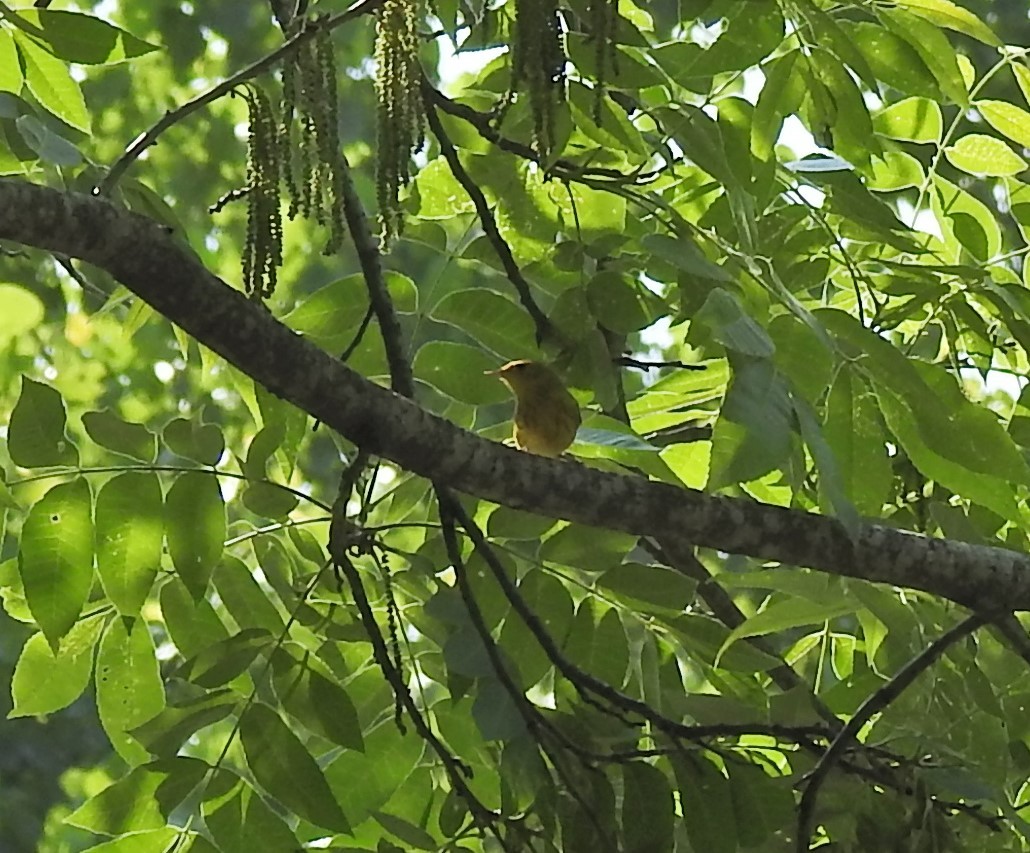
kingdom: Animalia
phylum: Chordata
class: Aves
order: Passeriformes
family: Parulidae
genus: Setophaga
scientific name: Setophaga petechia
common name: Yellow warbler
